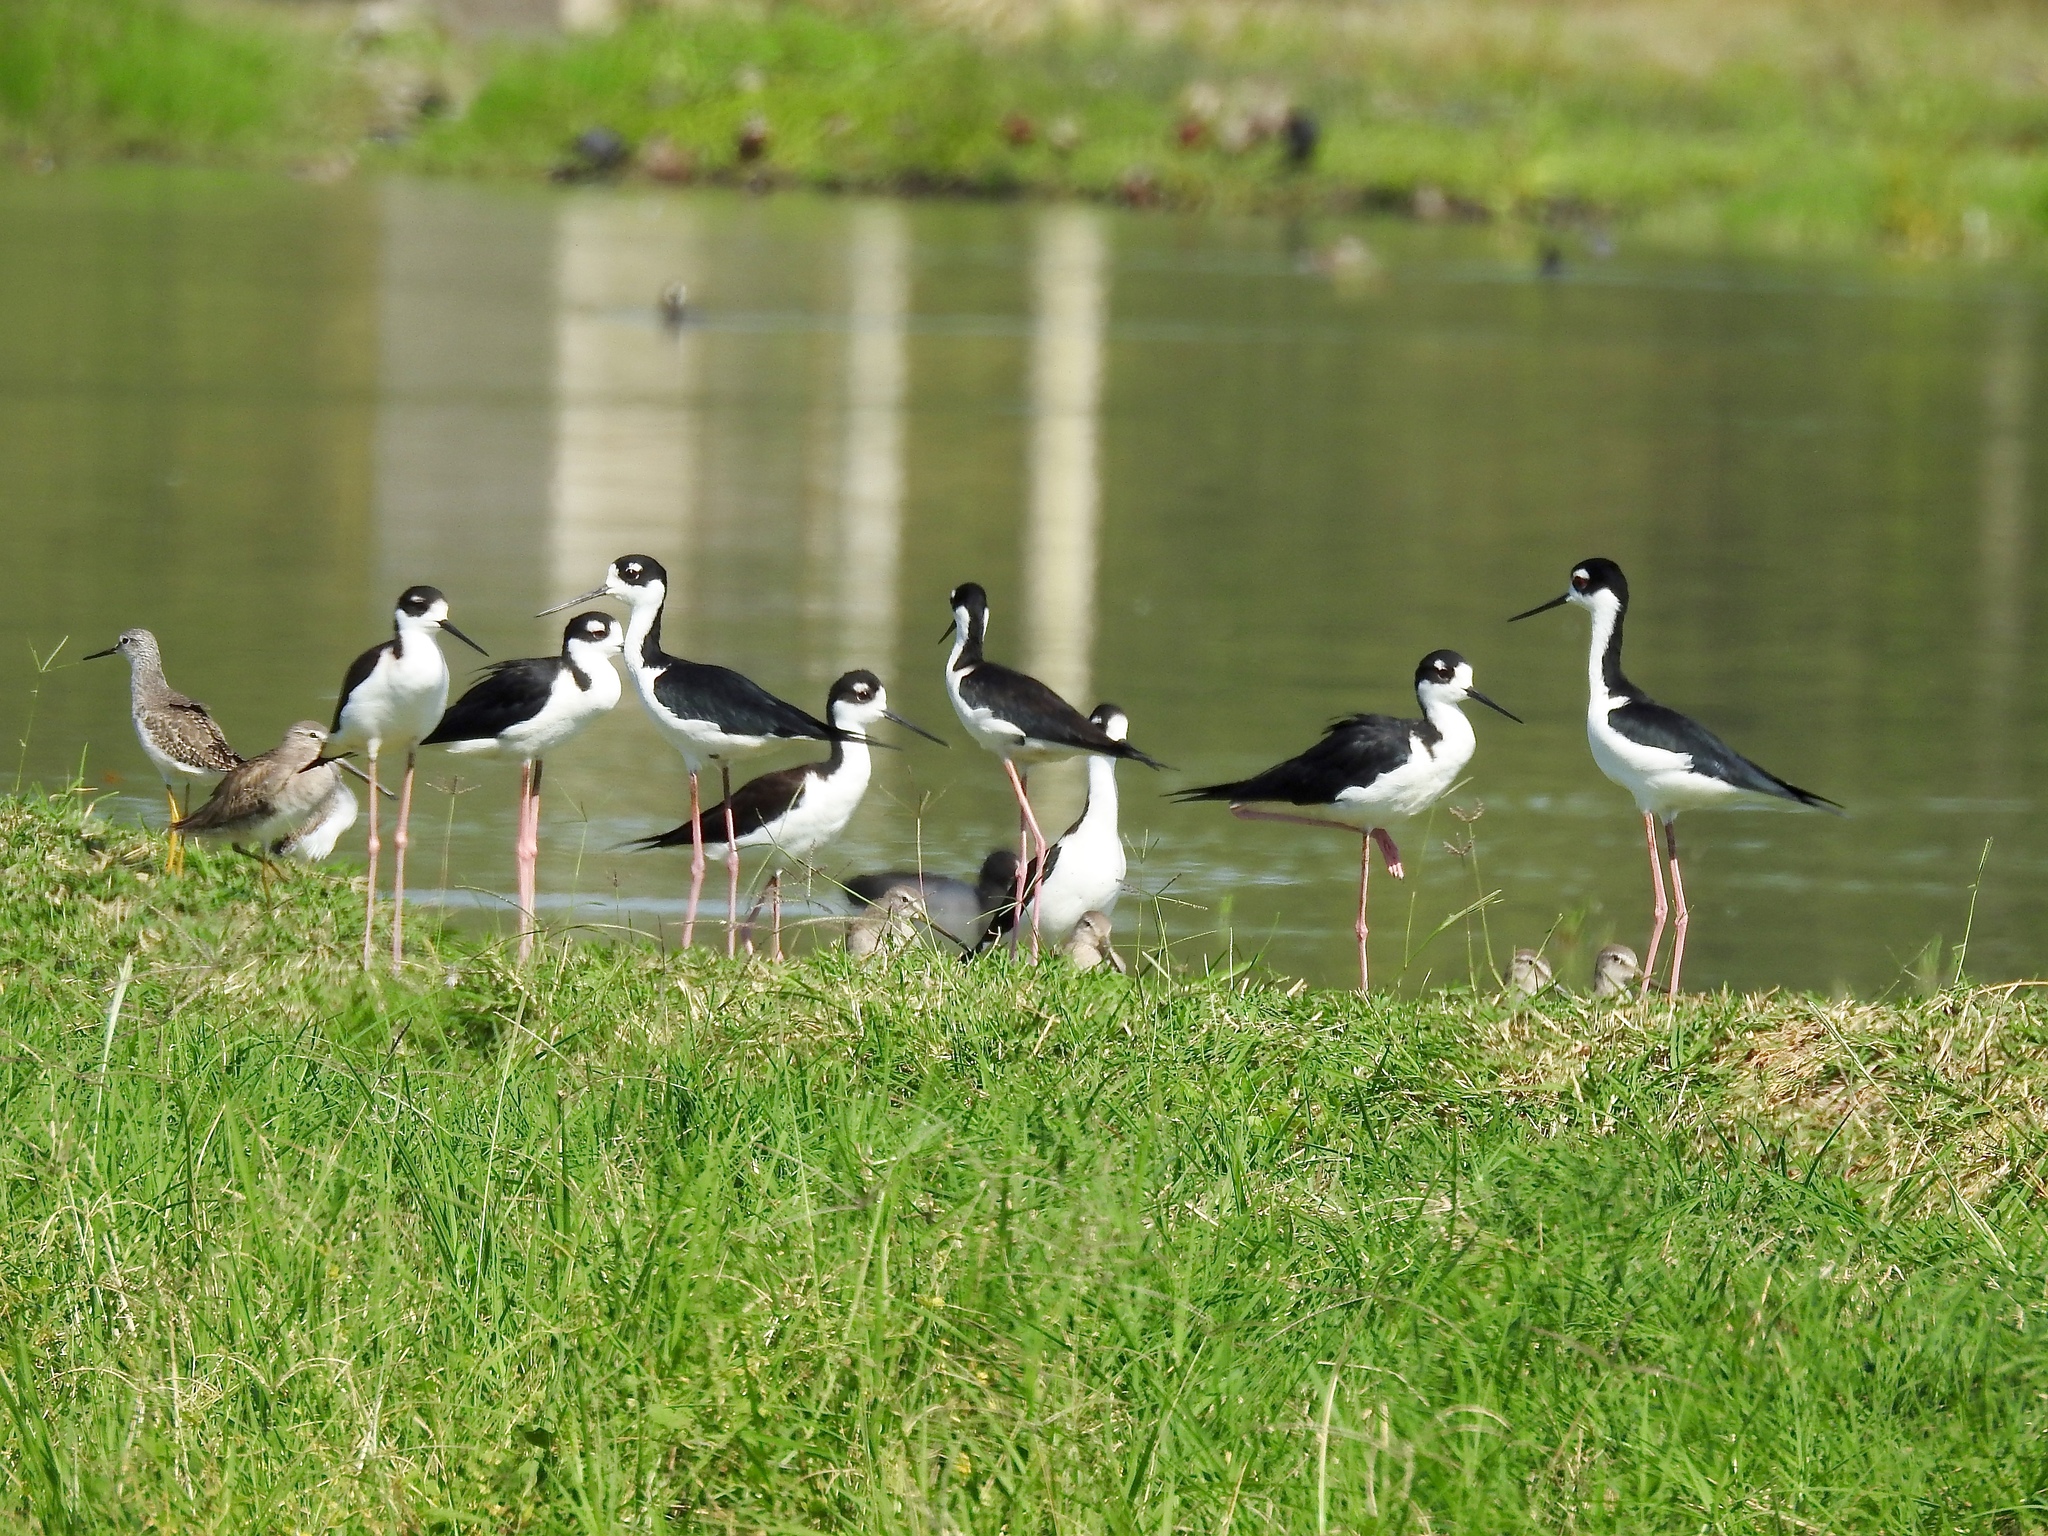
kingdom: Animalia
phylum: Chordata
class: Aves
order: Charadriiformes
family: Recurvirostridae
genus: Himantopus
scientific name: Himantopus mexicanus
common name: Black-necked stilt
